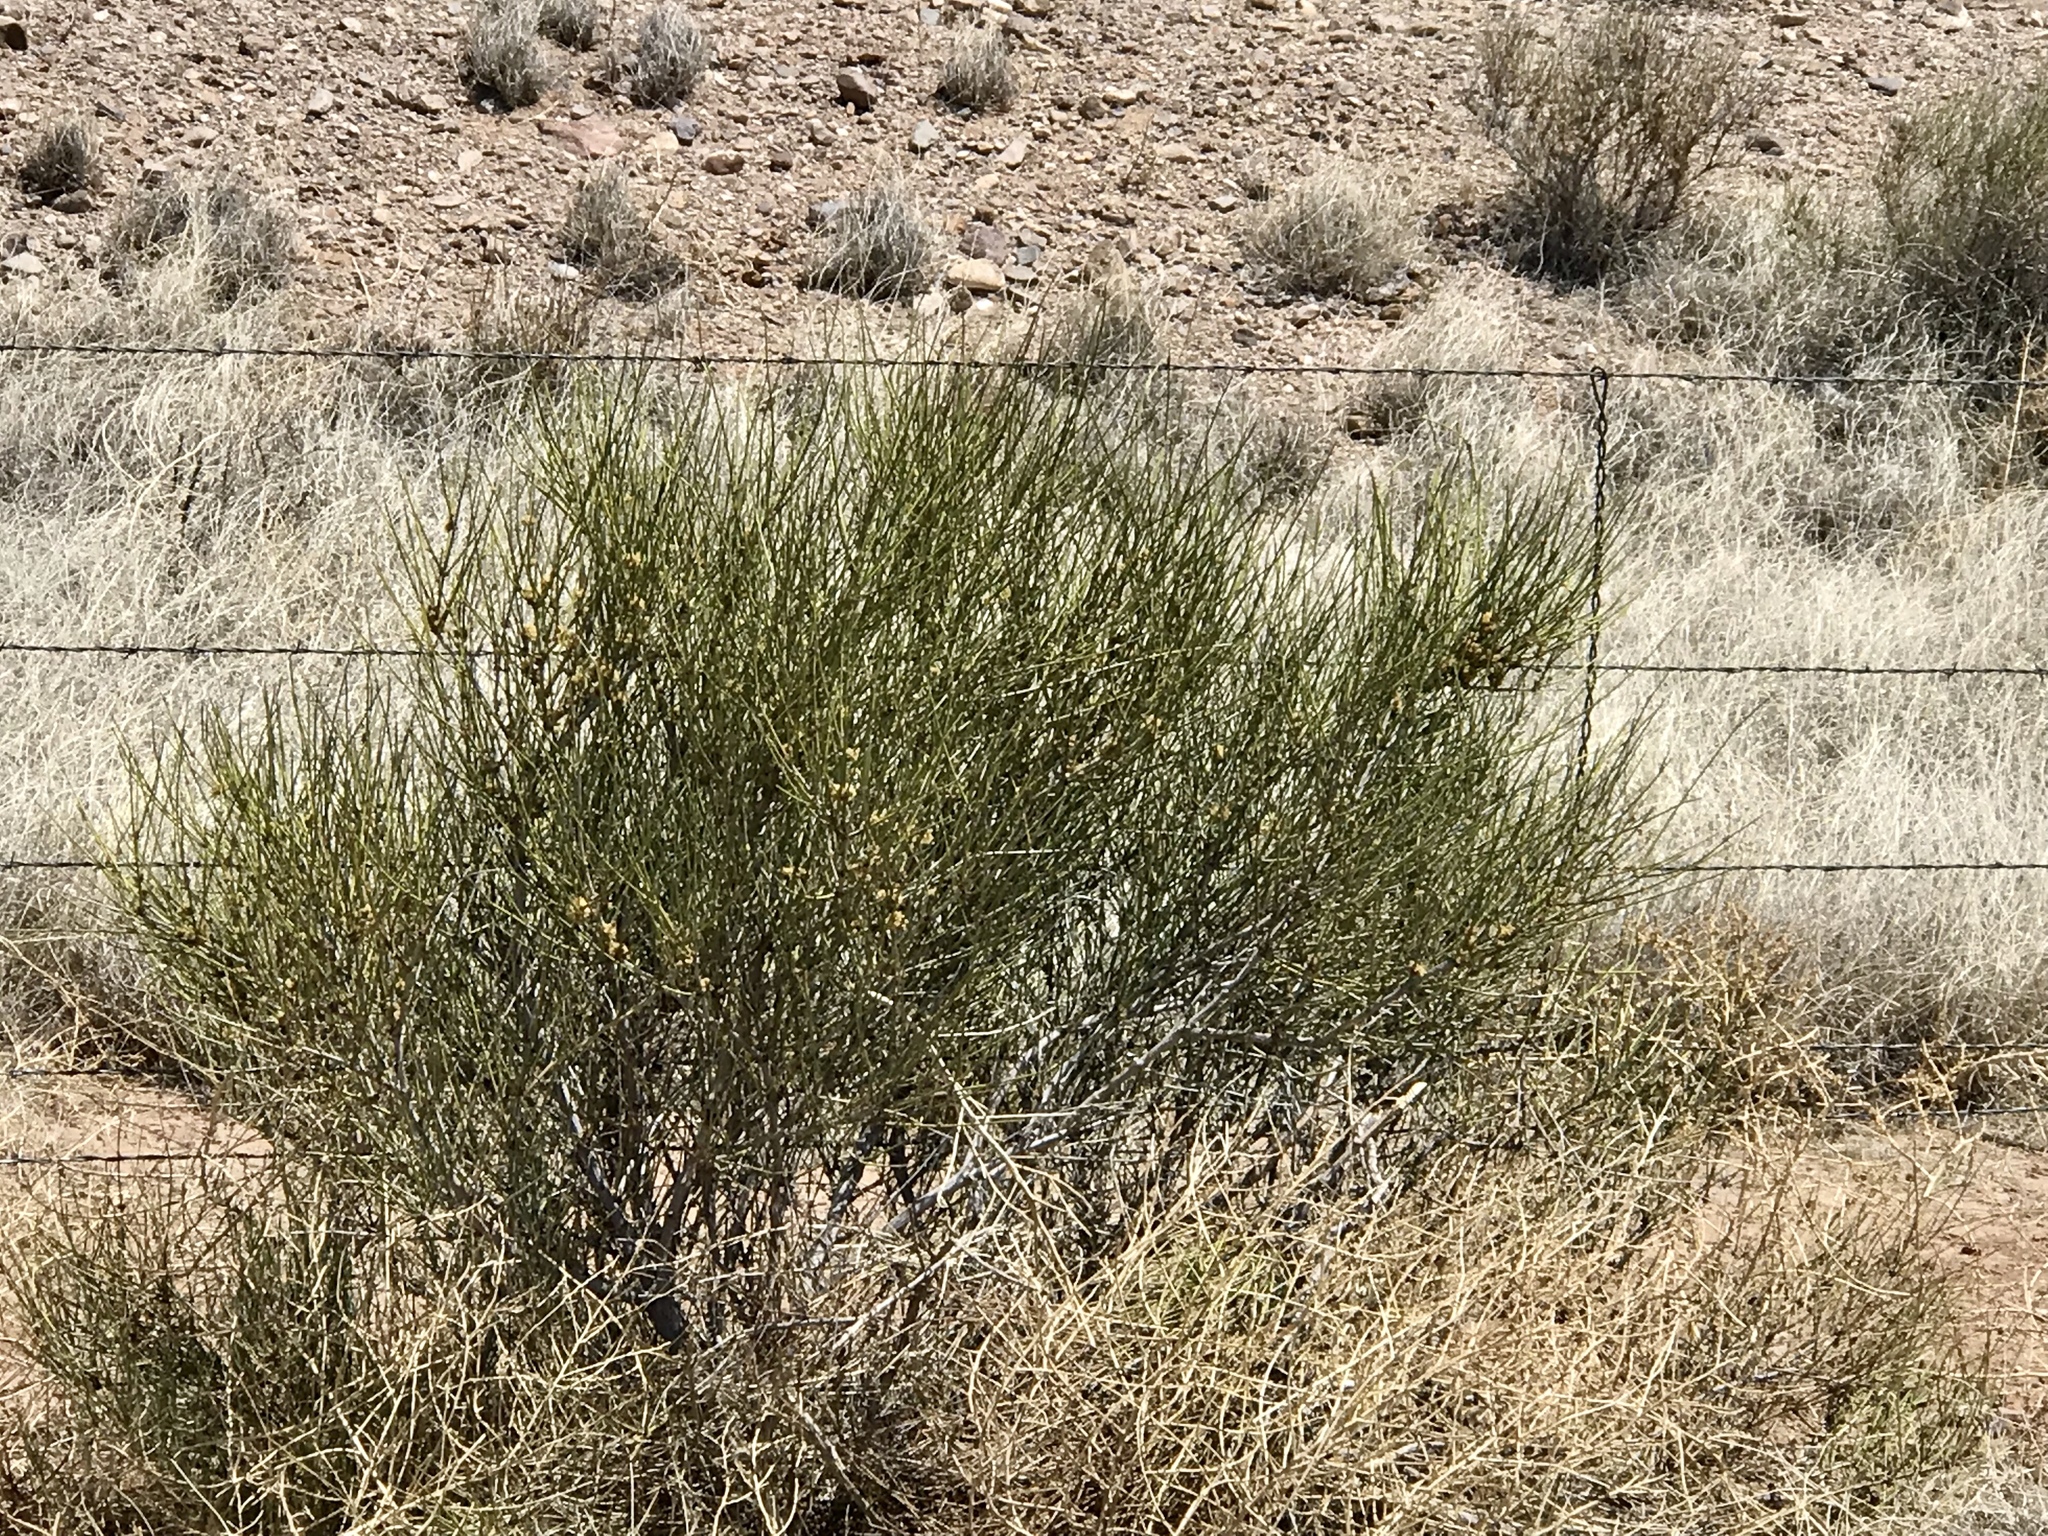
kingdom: Plantae
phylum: Tracheophyta
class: Gnetopsida
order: Ephedrales
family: Ephedraceae
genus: Ephedra
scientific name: Ephedra trifurca
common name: Mexican-tea
